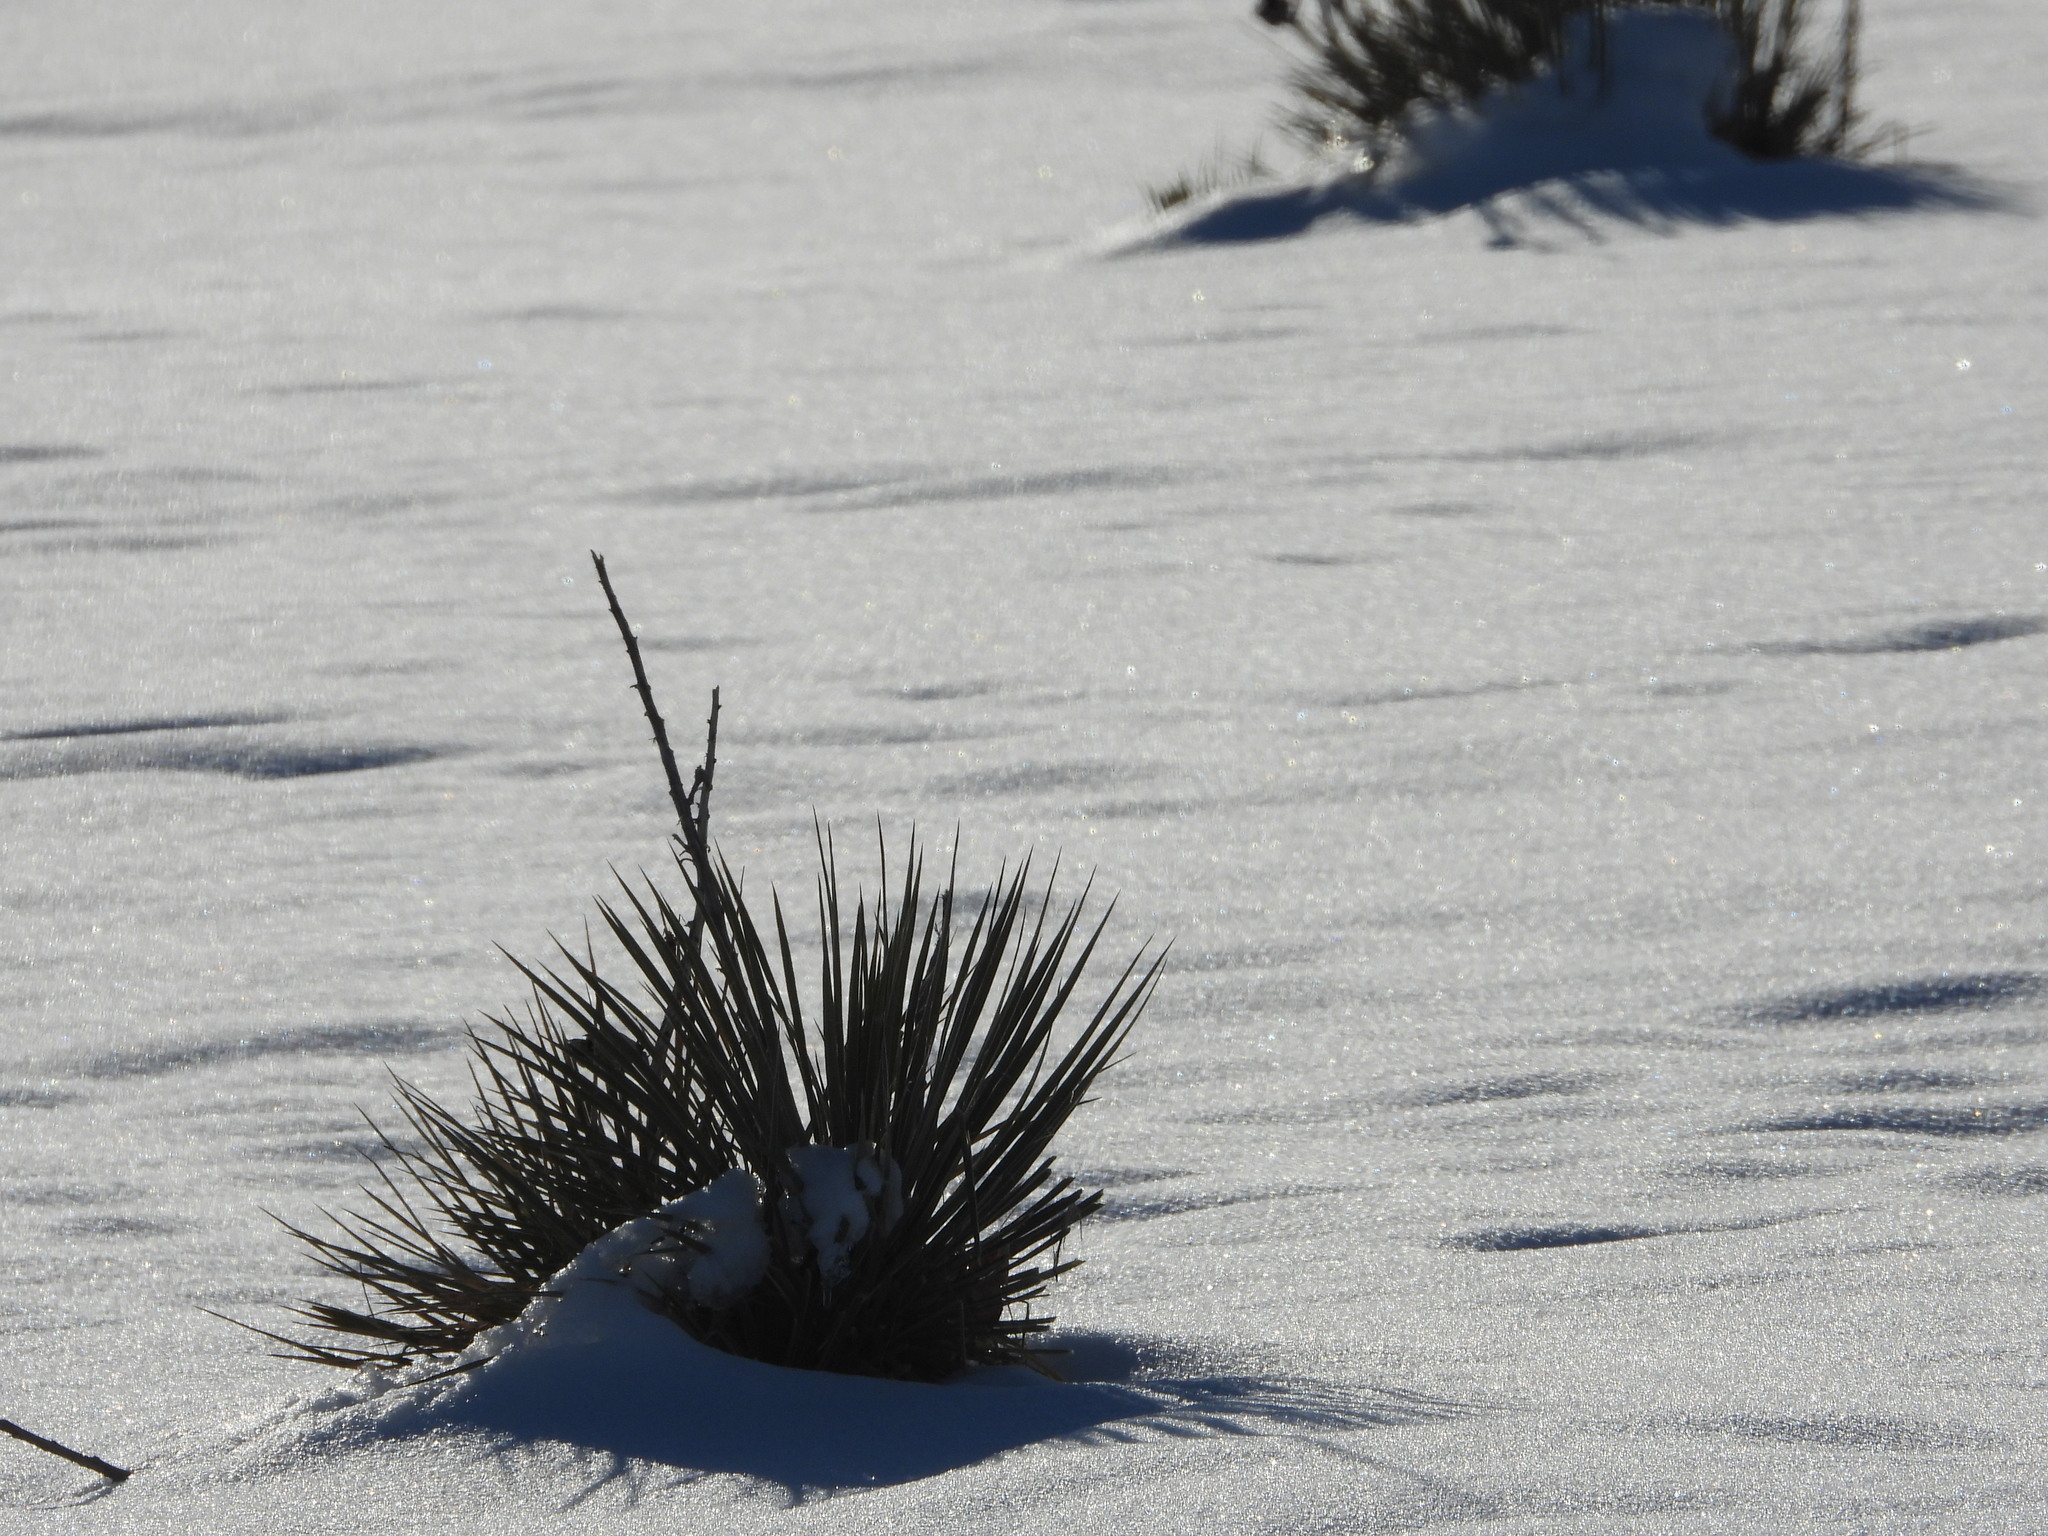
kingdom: Plantae
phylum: Tracheophyta
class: Liliopsida
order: Asparagales
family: Asparagaceae
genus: Yucca
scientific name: Yucca glauca
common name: Great plains yucca
